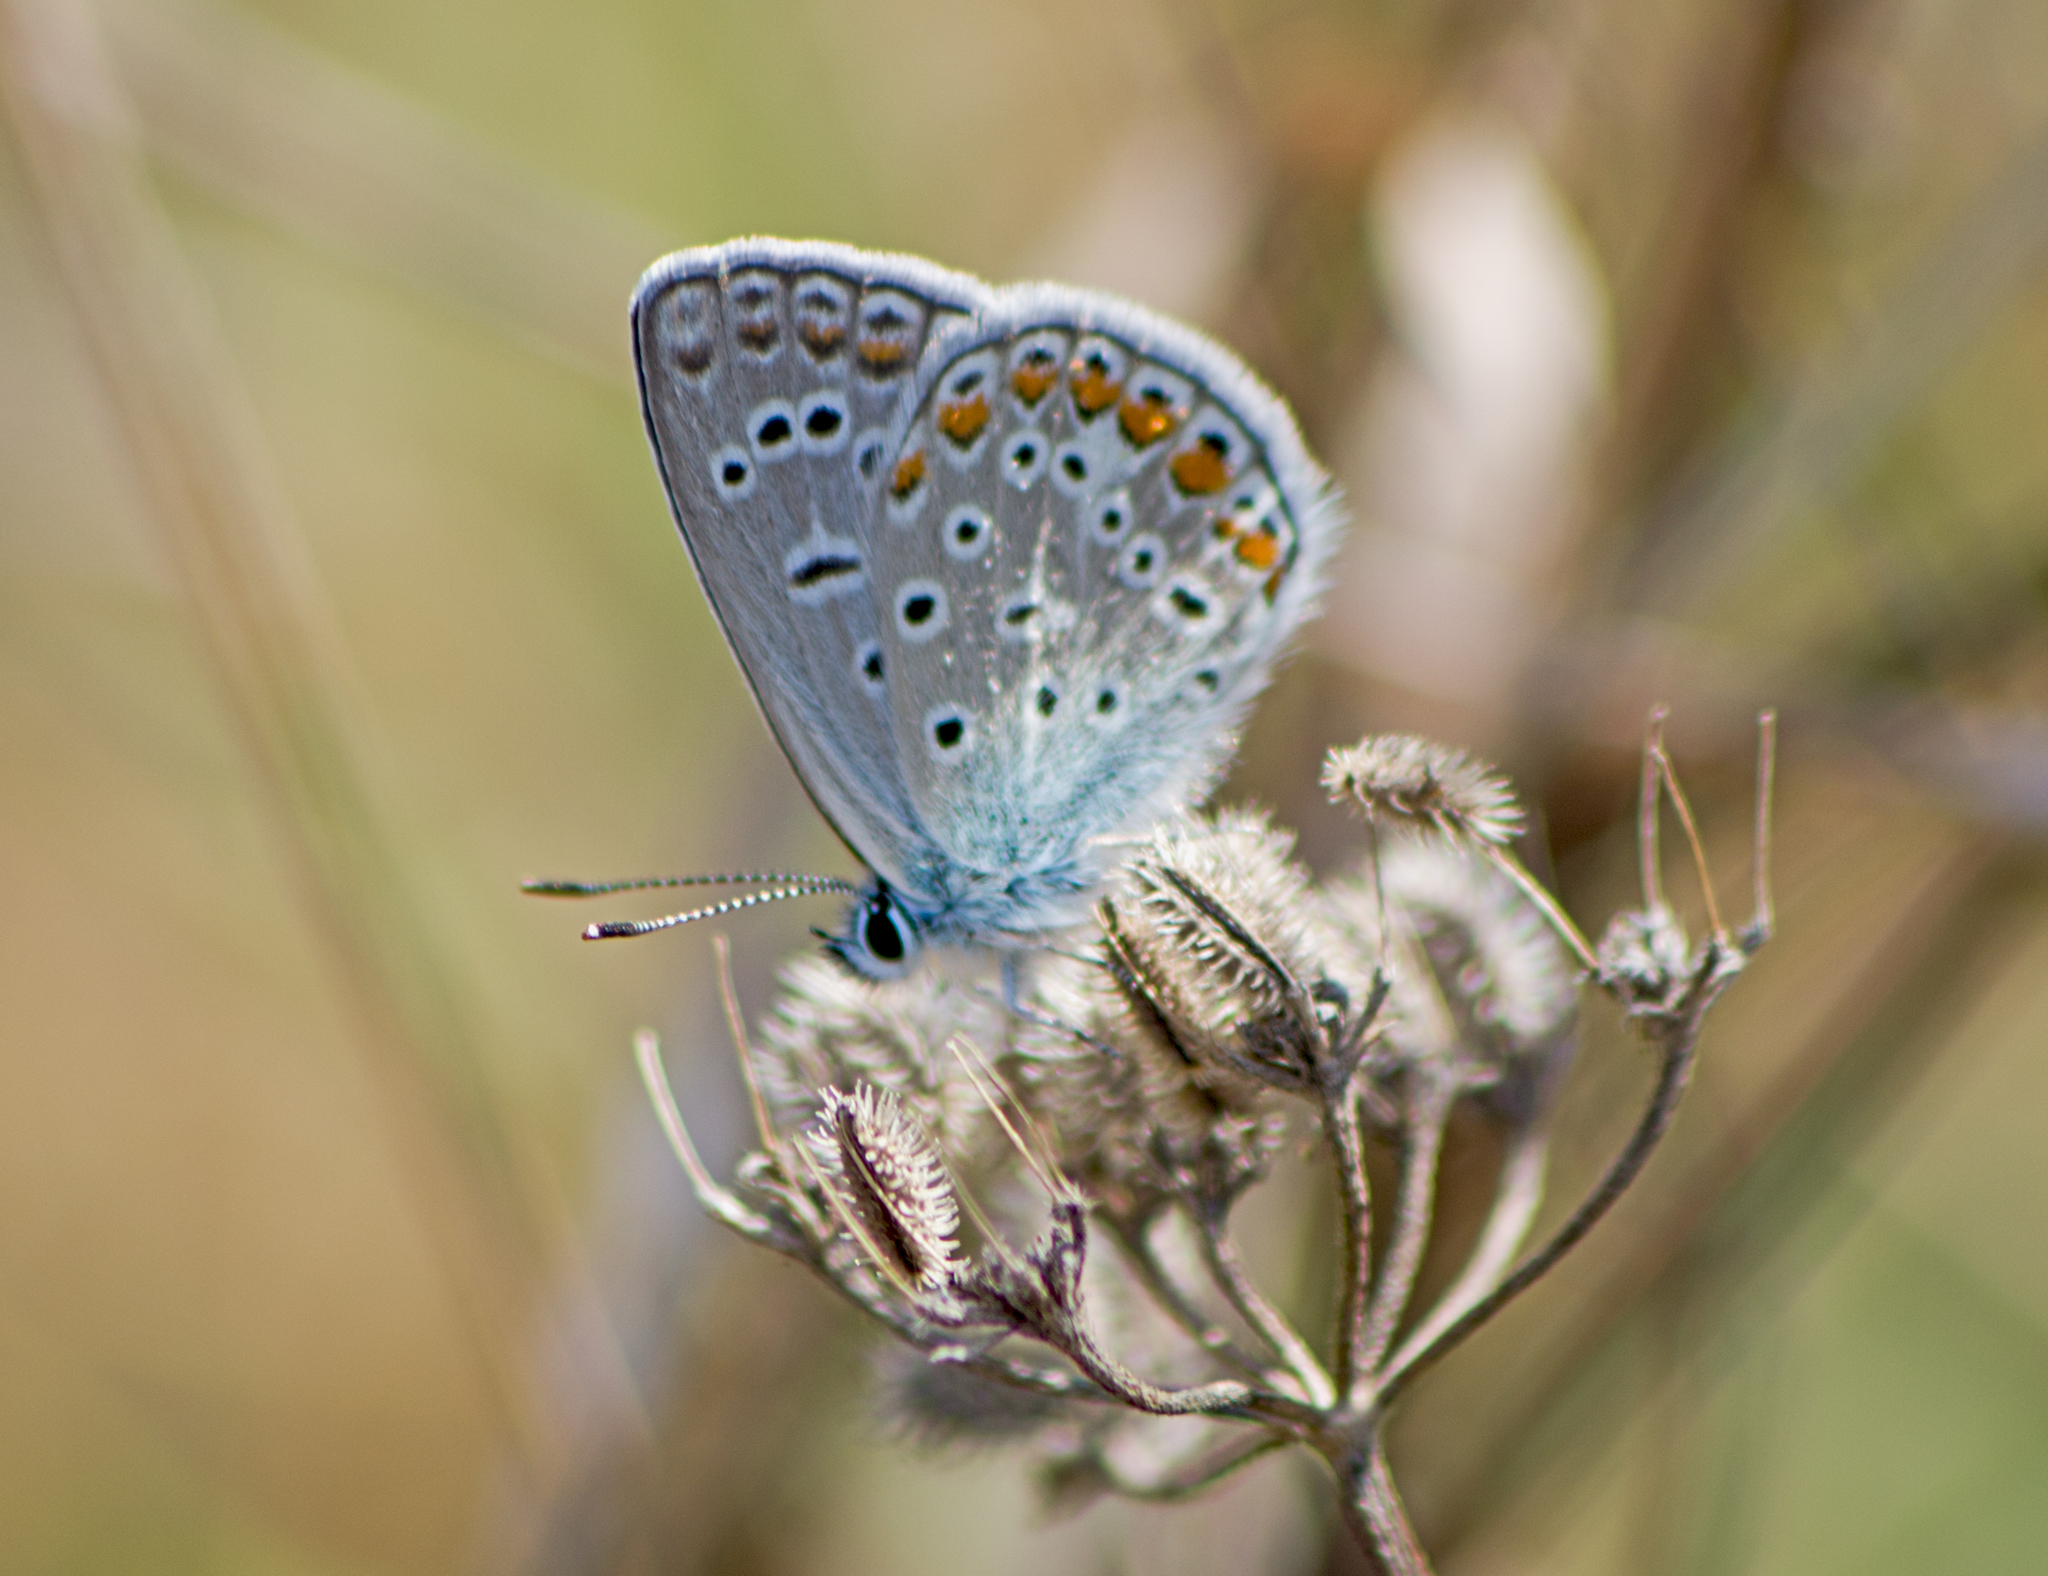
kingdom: Animalia
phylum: Arthropoda
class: Insecta
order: Lepidoptera
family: Lycaenidae
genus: Polyommatus
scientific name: Polyommatus icarus
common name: Common blue
